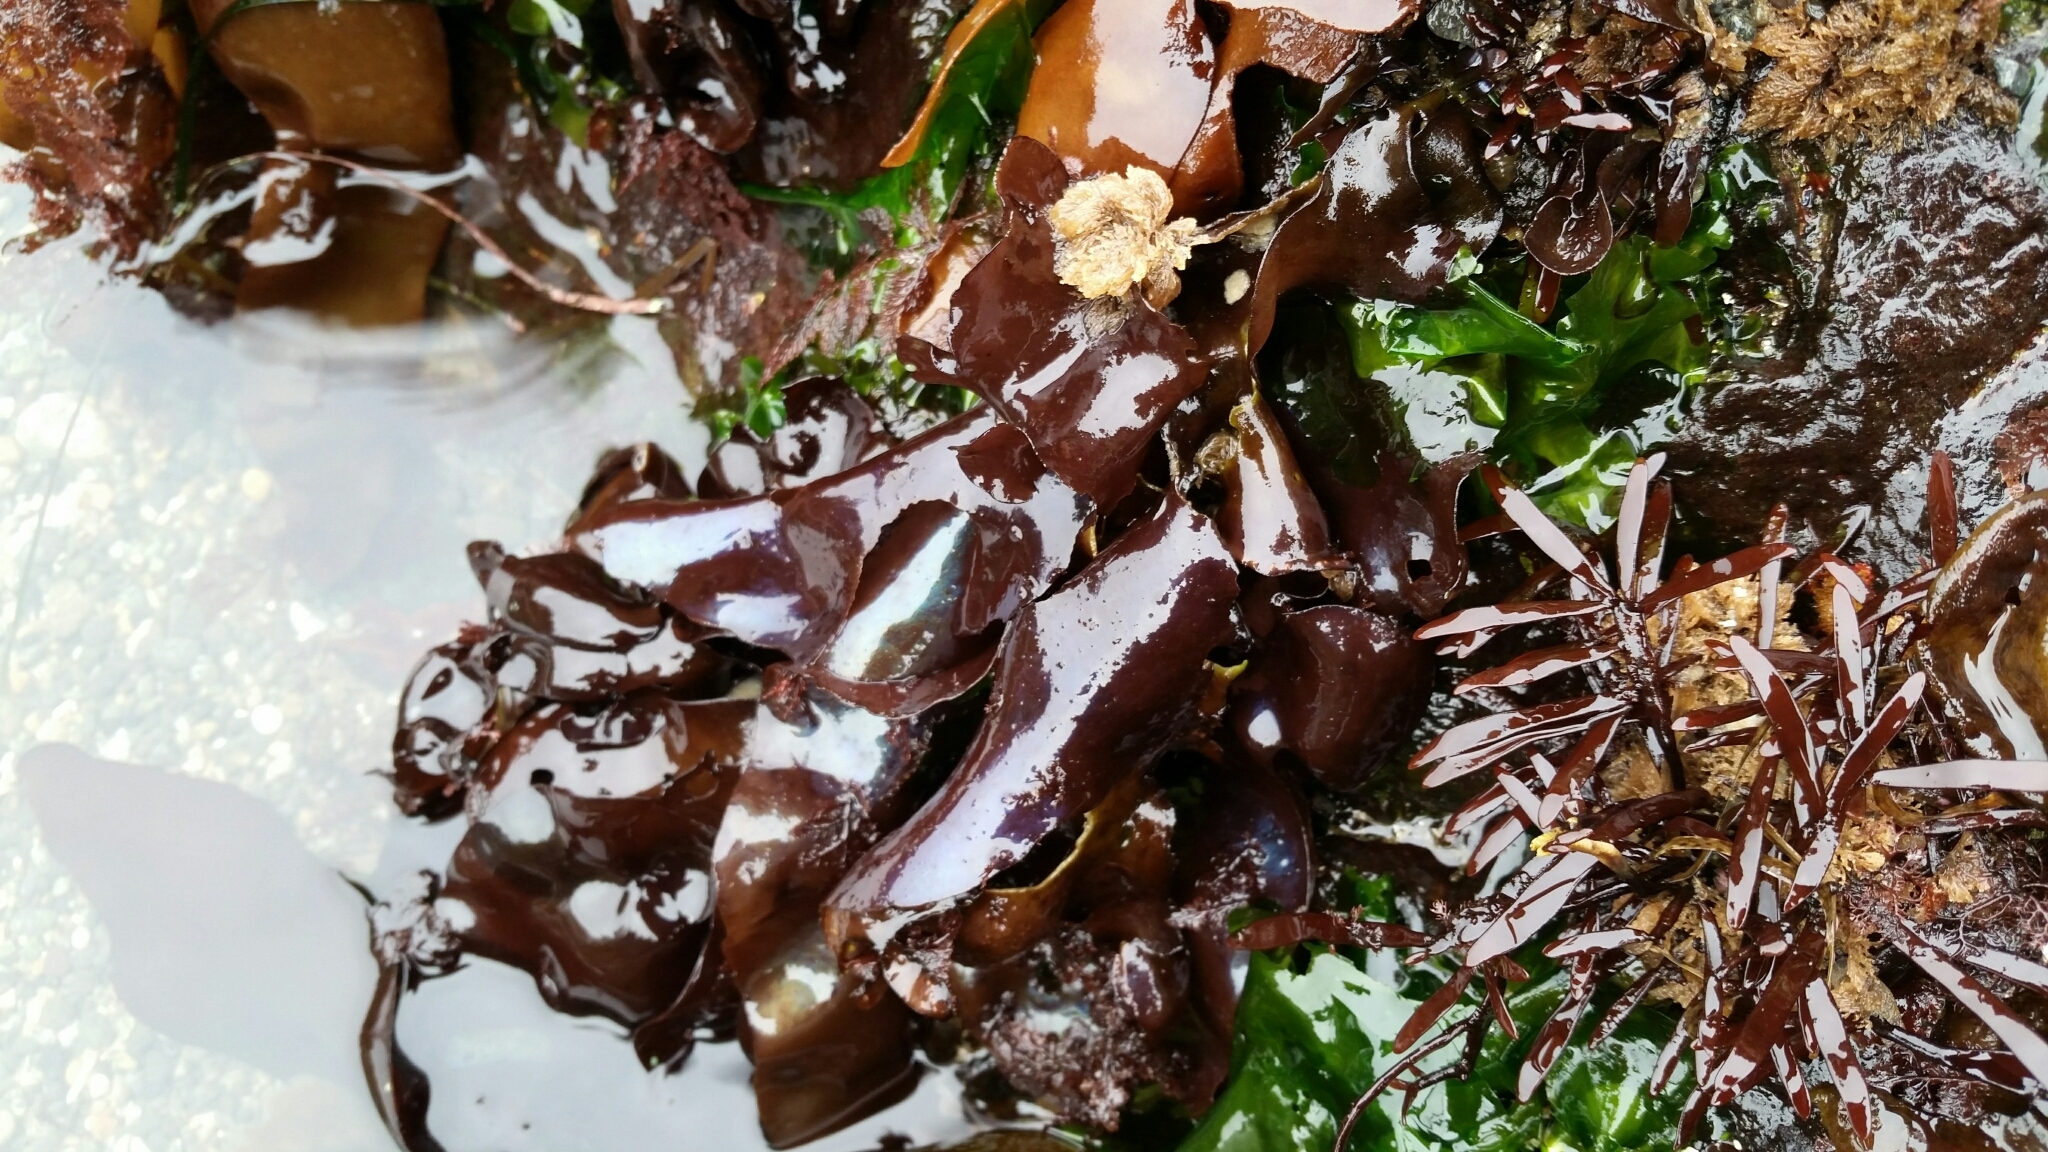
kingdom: Plantae
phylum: Rhodophyta
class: Florideophyceae
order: Gigartinales
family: Gigartinaceae
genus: Mazzaella
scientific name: Mazzaella splendens
